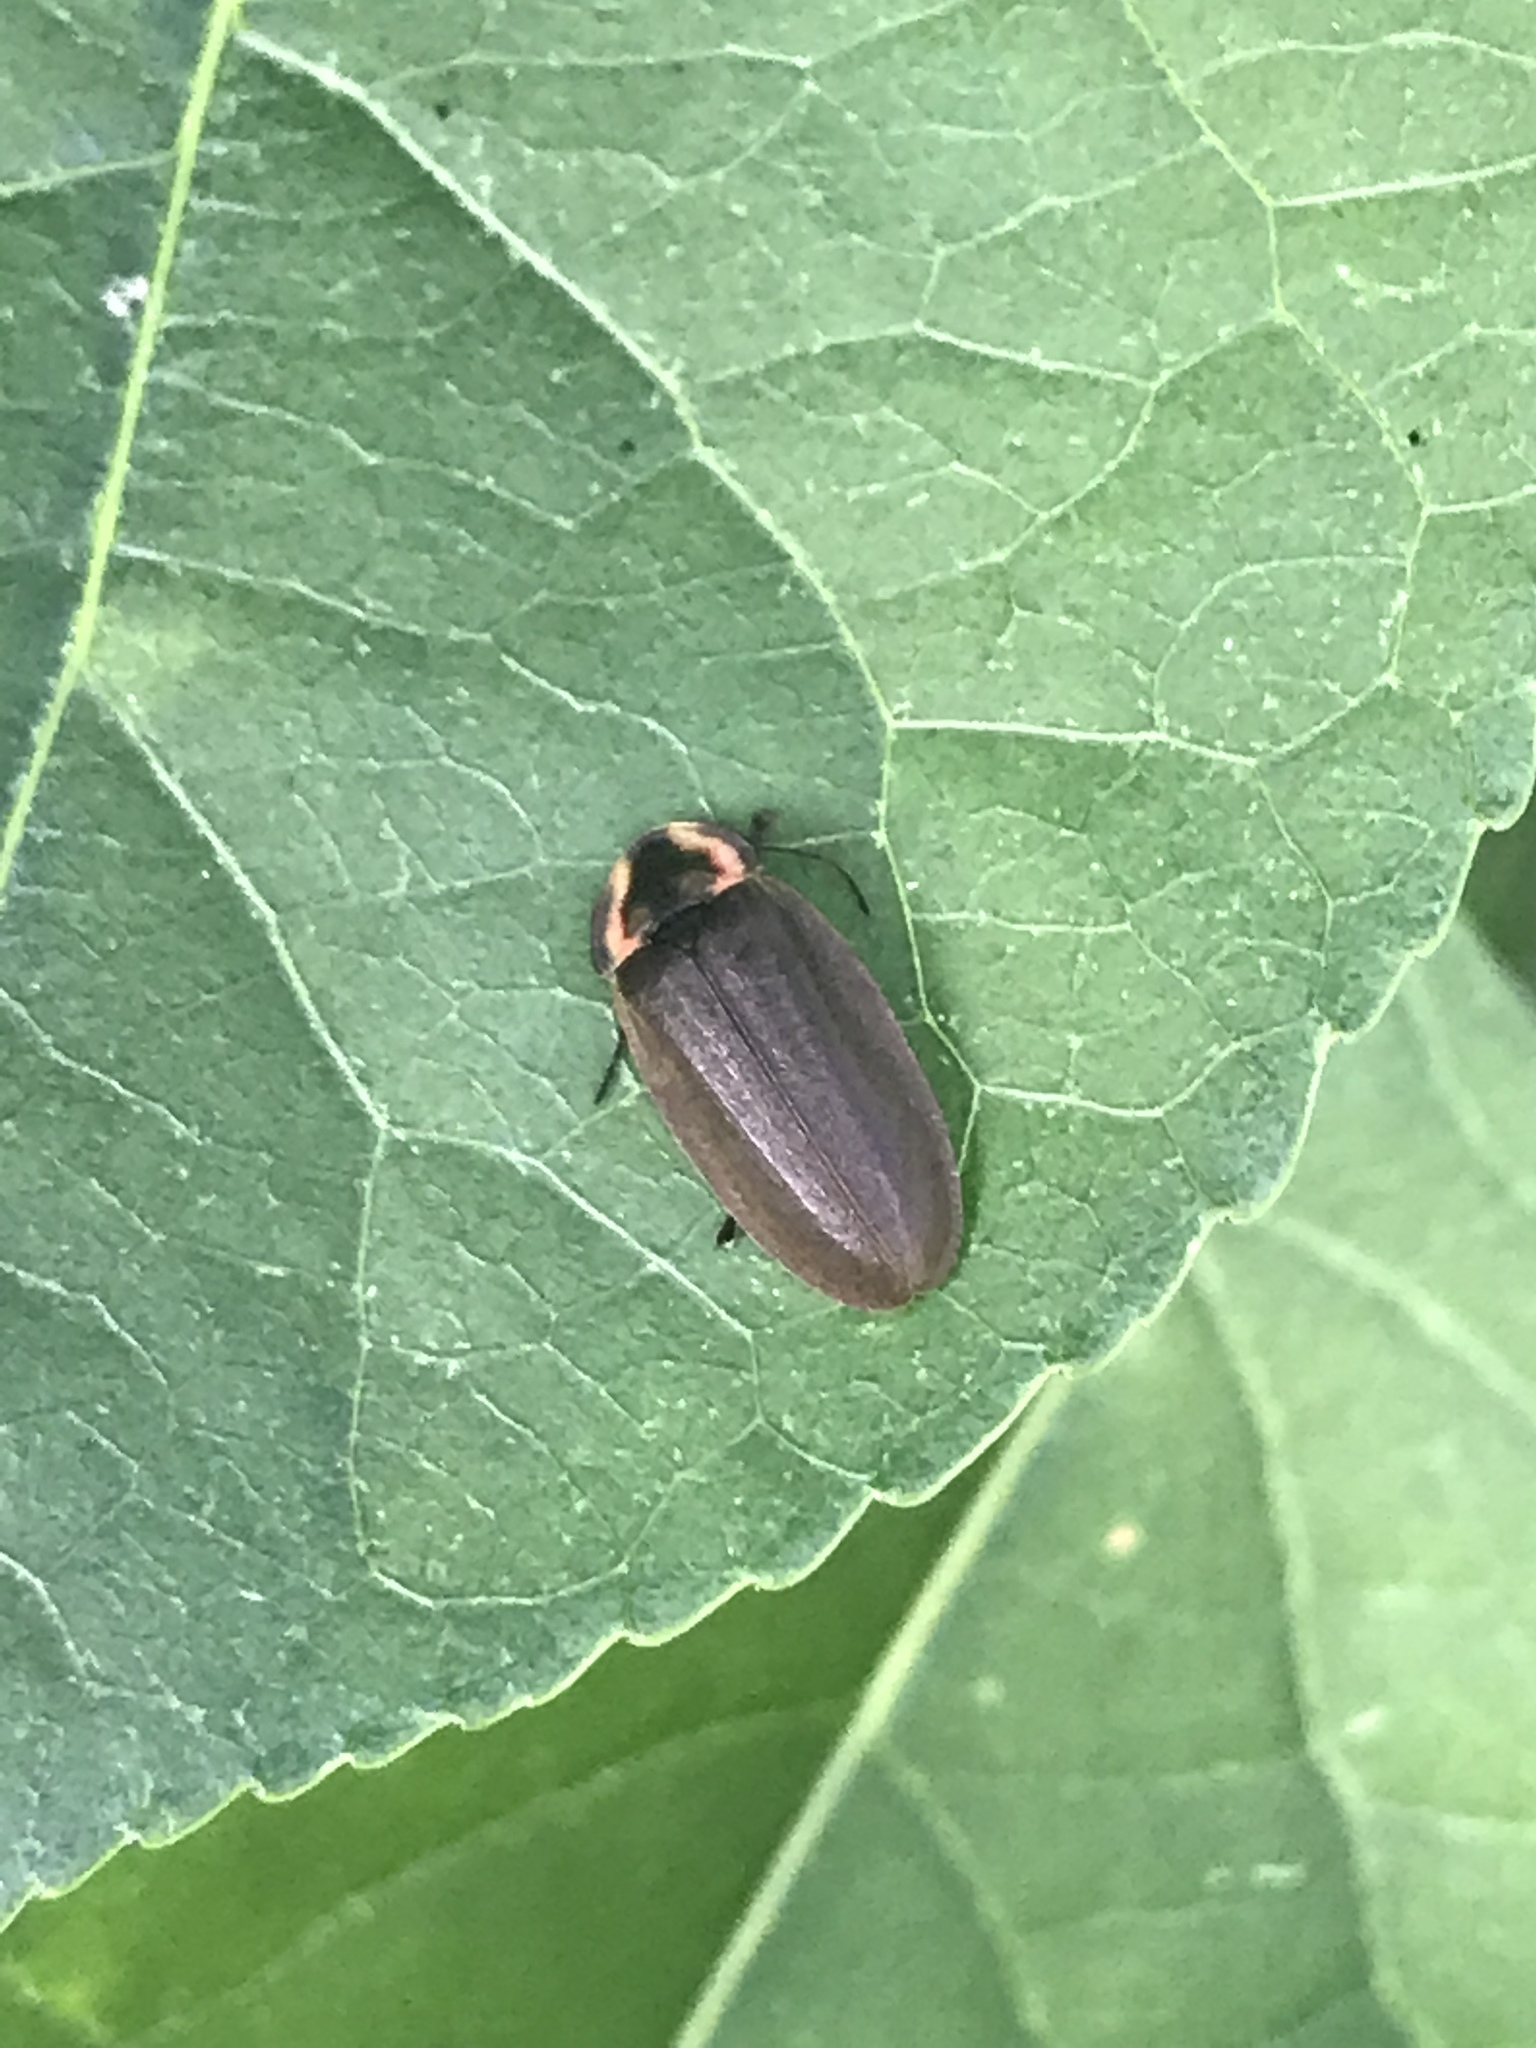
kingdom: Animalia
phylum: Arthropoda
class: Insecta
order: Coleoptera
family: Lampyridae
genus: Photinus
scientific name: Photinus corrusca
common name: Winter firefly
